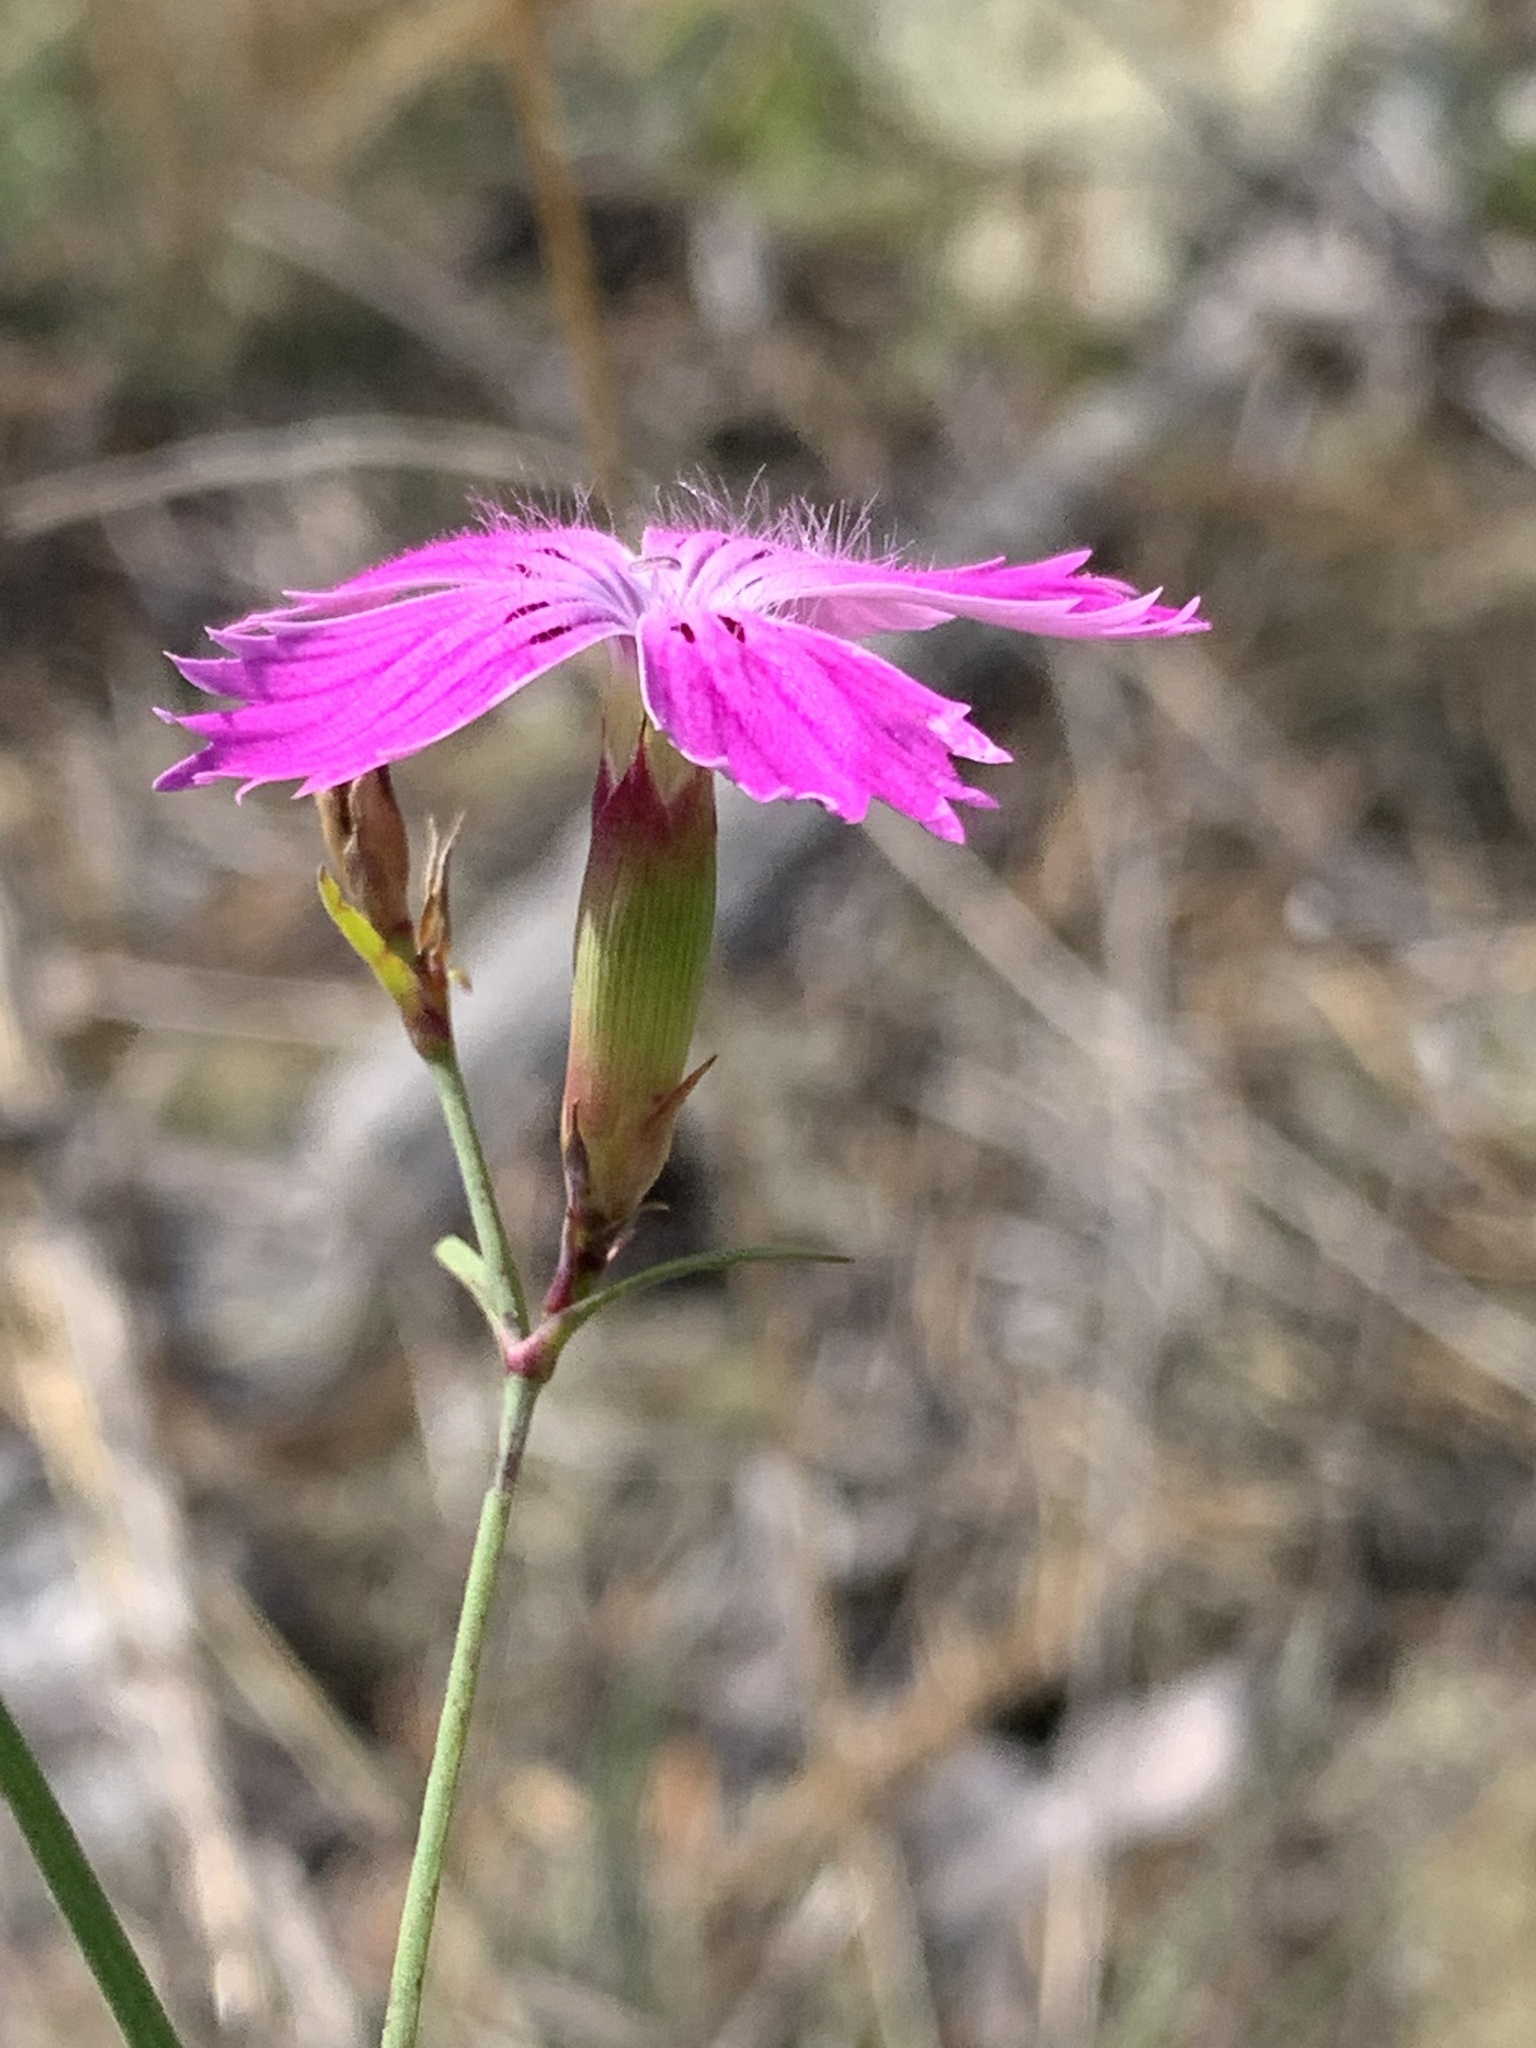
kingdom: Plantae
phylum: Tracheophyta
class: Magnoliopsida
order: Caryophyllales
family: Caryophyllaceae
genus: Dianthus
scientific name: Dianthus chinensis
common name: Rainbow pink
